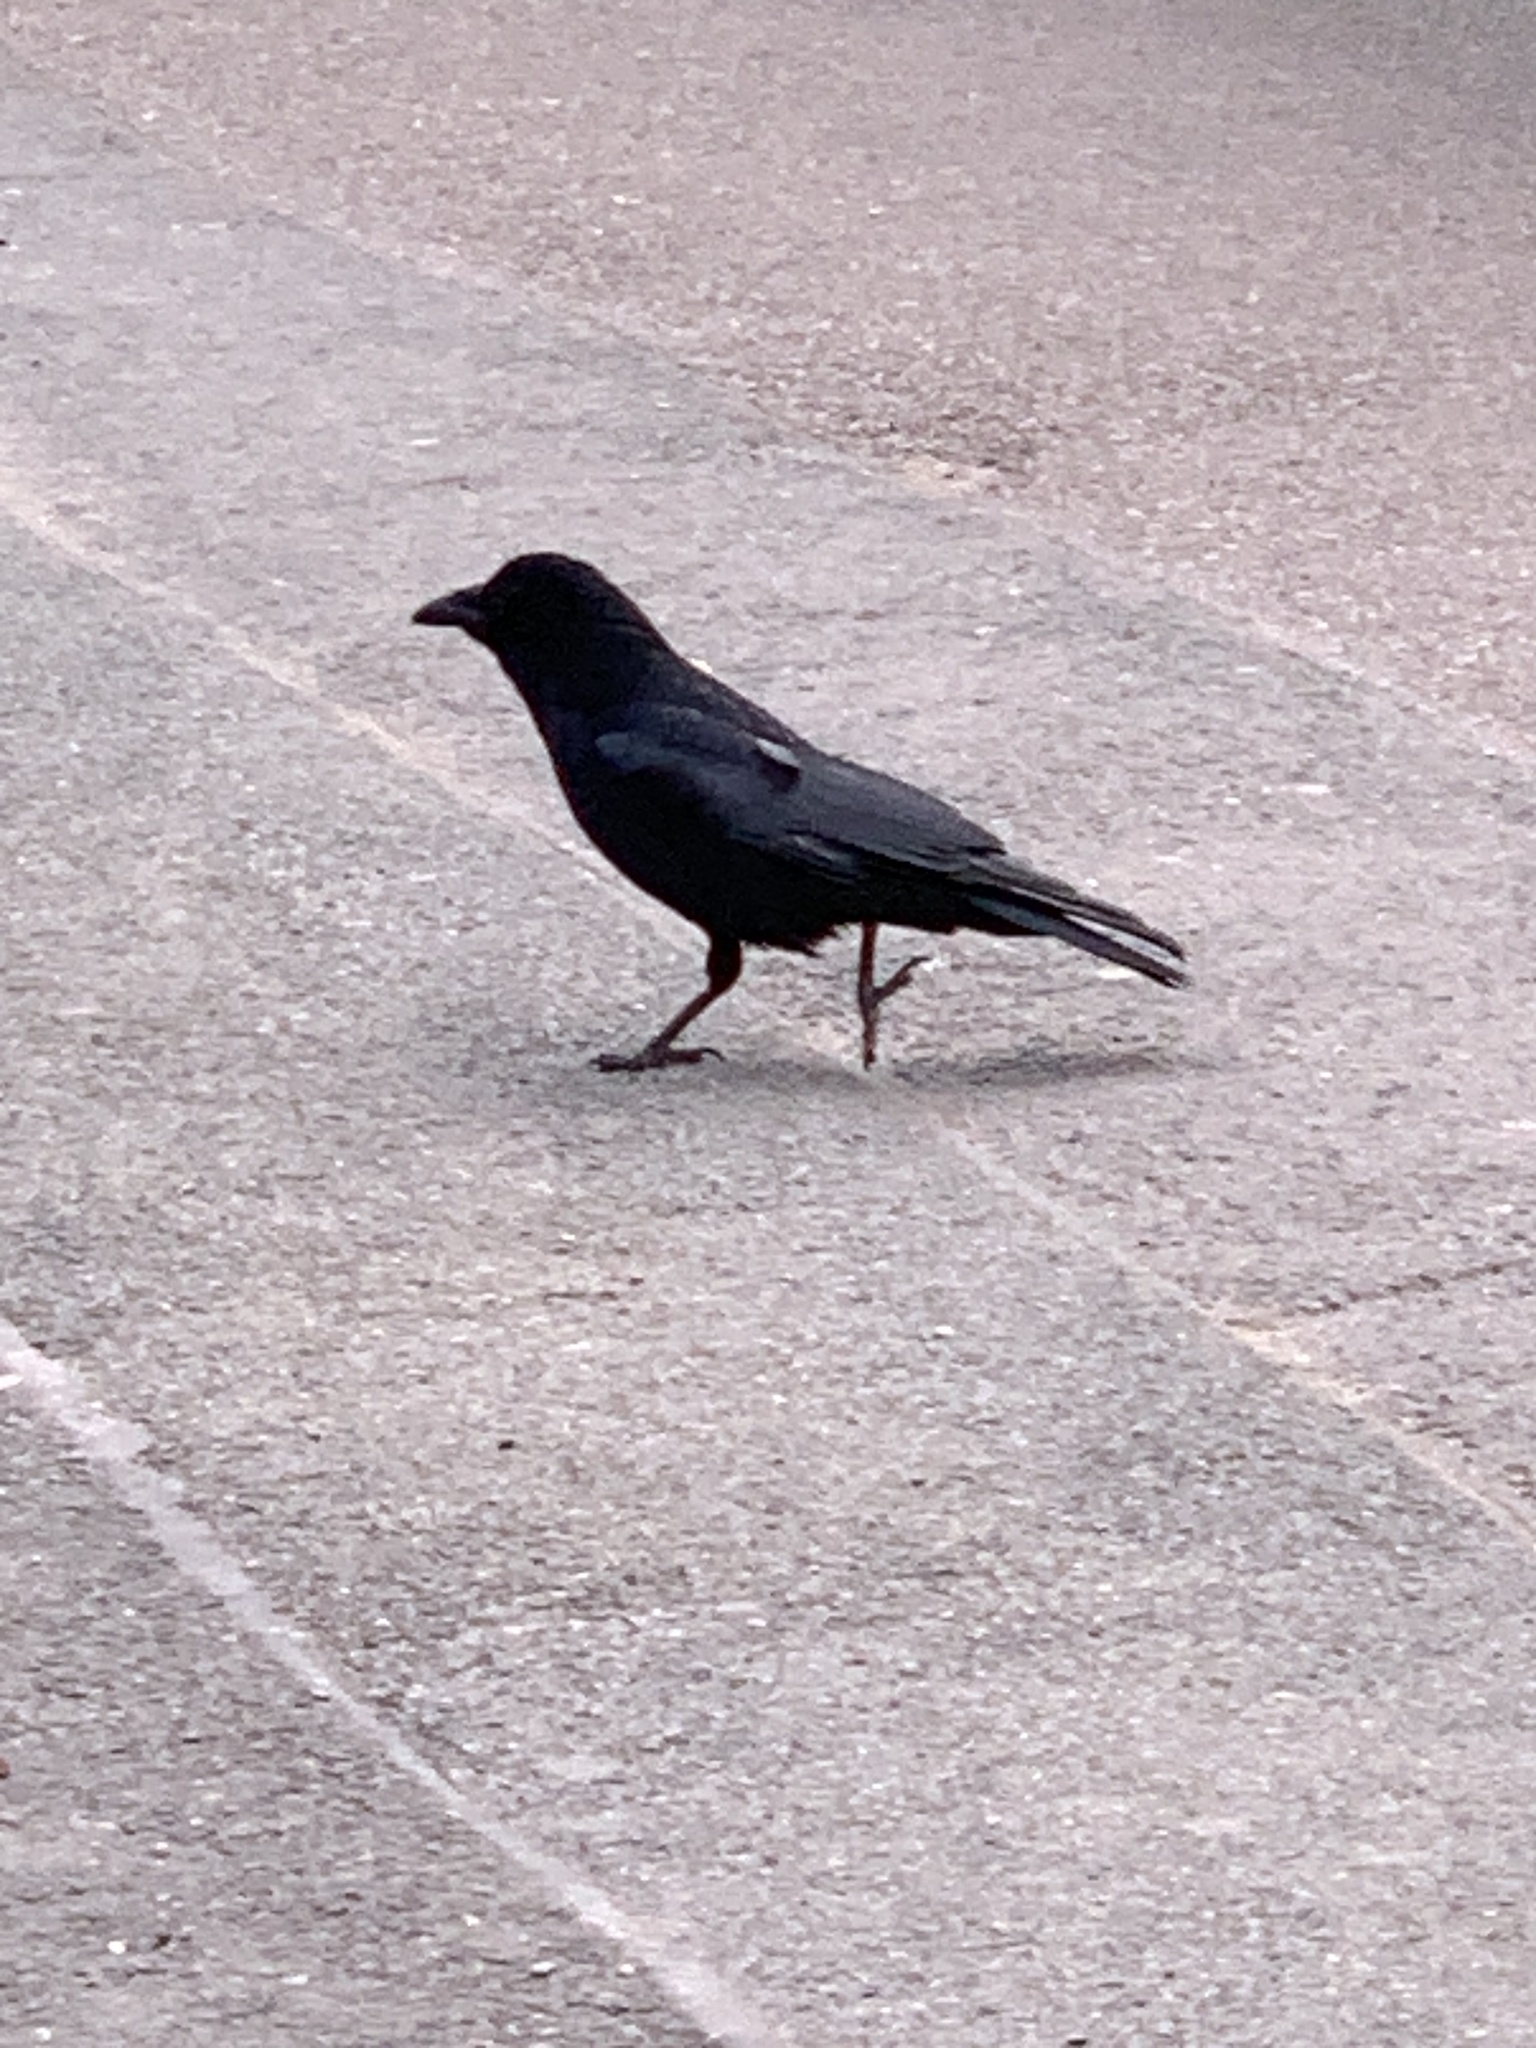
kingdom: Animalia
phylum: Chordata
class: Aves
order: Passeriformes
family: Corvidae
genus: Corvus
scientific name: Corvus corone
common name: Carrion crow
